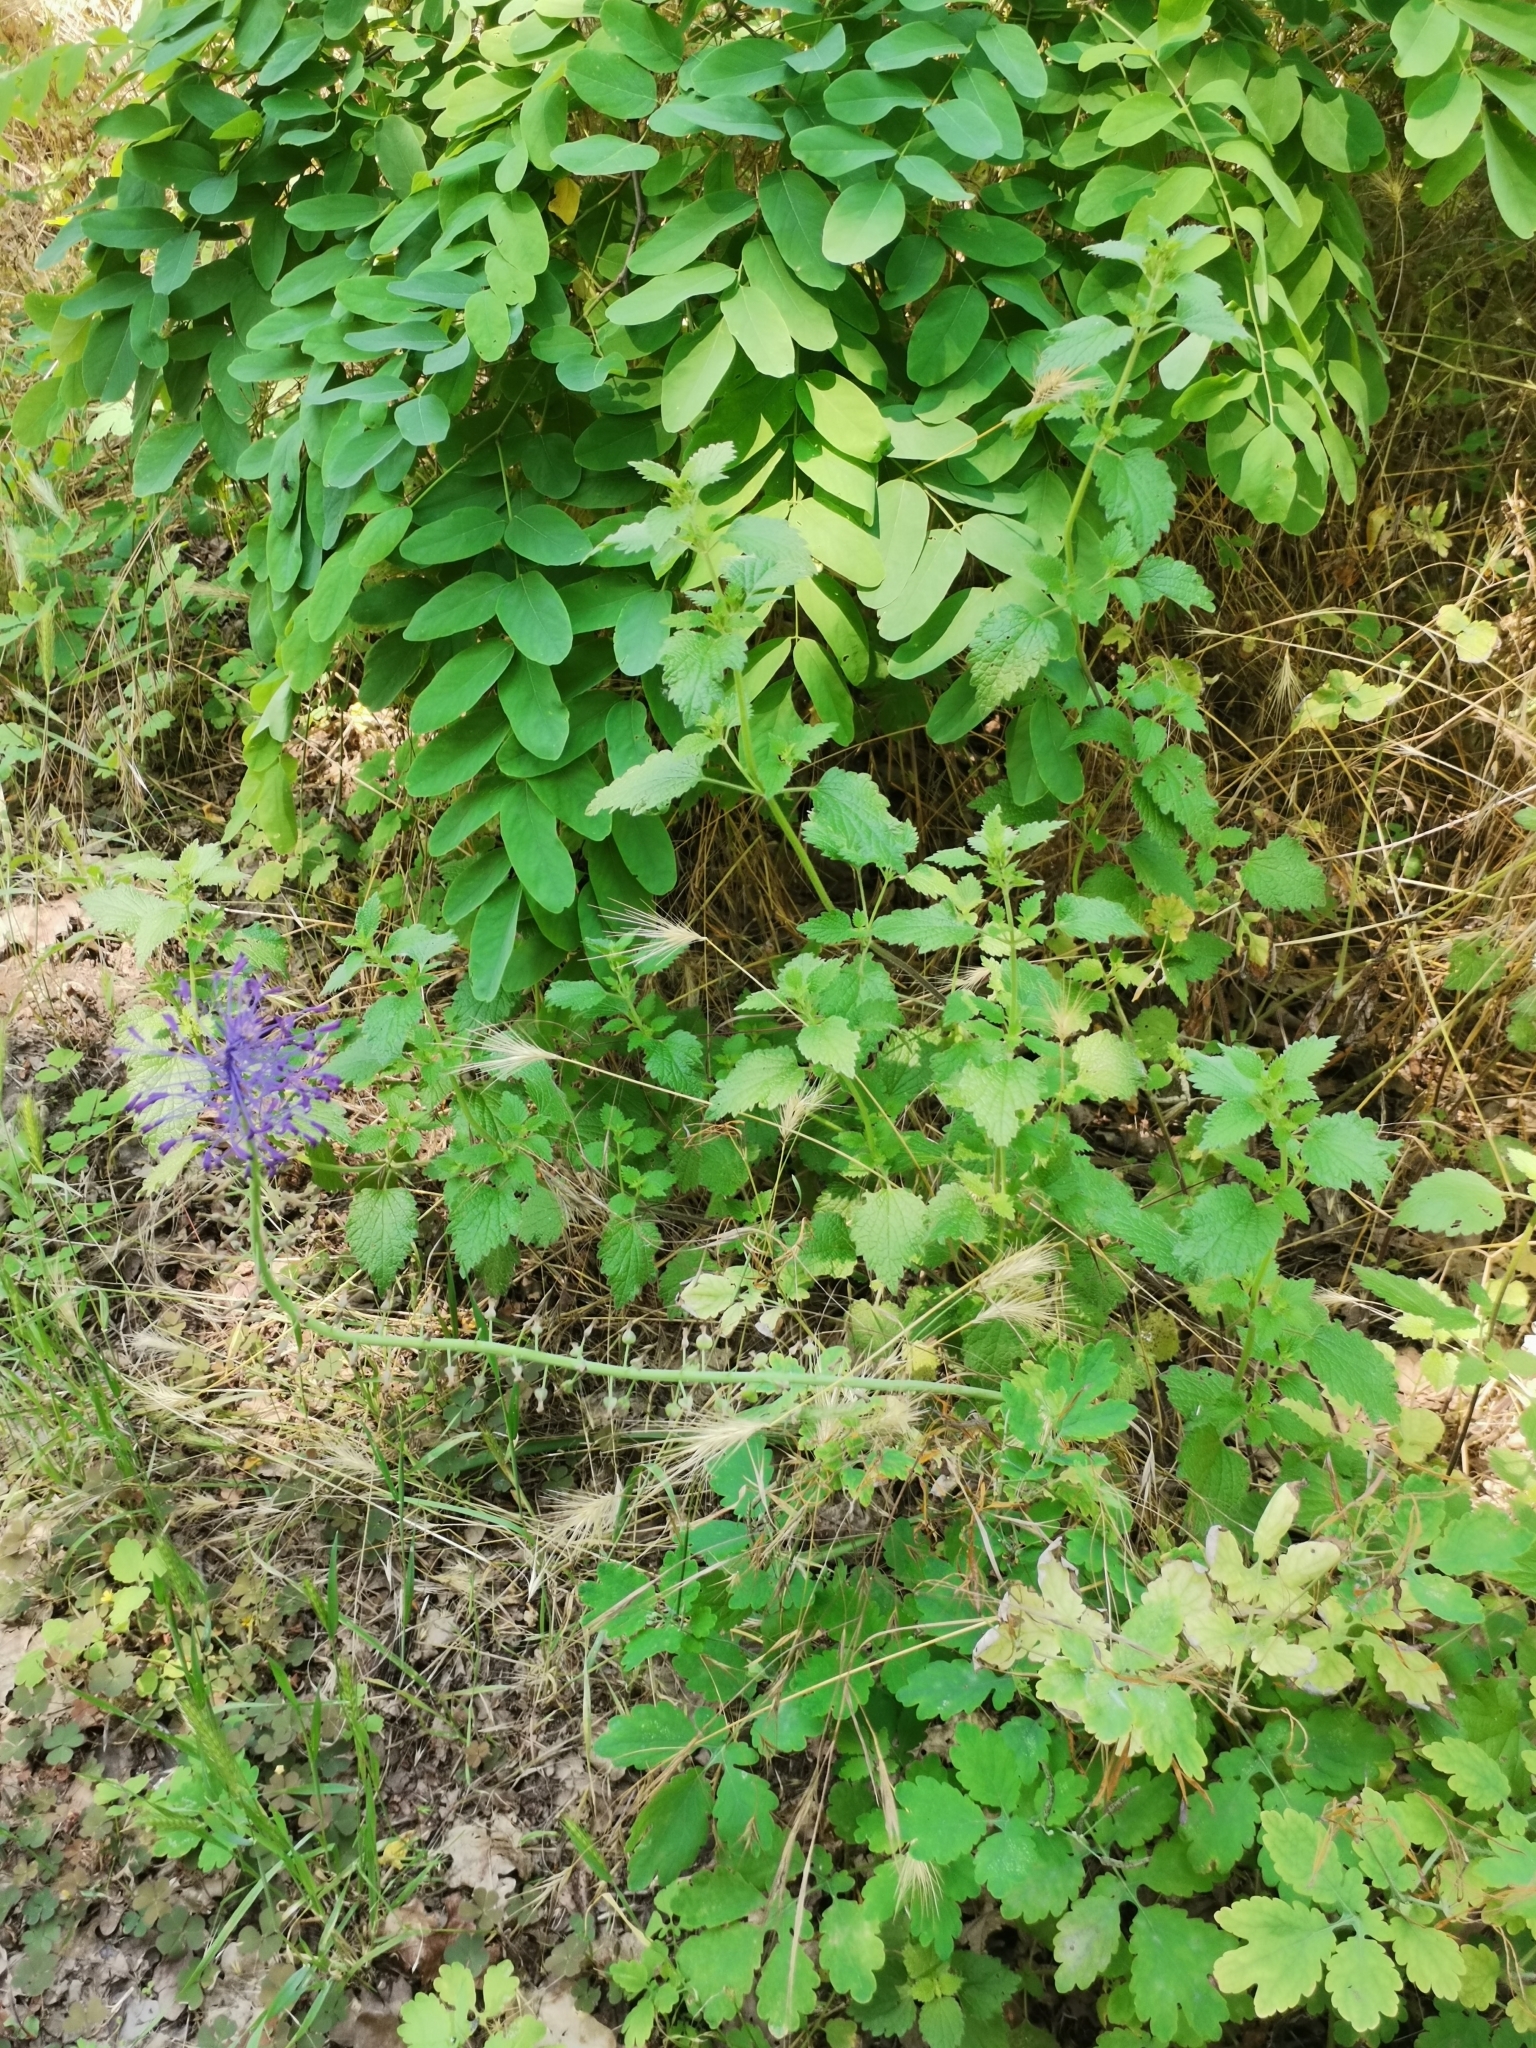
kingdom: Plantae
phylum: Tracheophyta
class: Liliopsida
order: Asparagales
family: Asparagaceae
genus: Muscari
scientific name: Muscari comosum
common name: Tassel hyacinth
